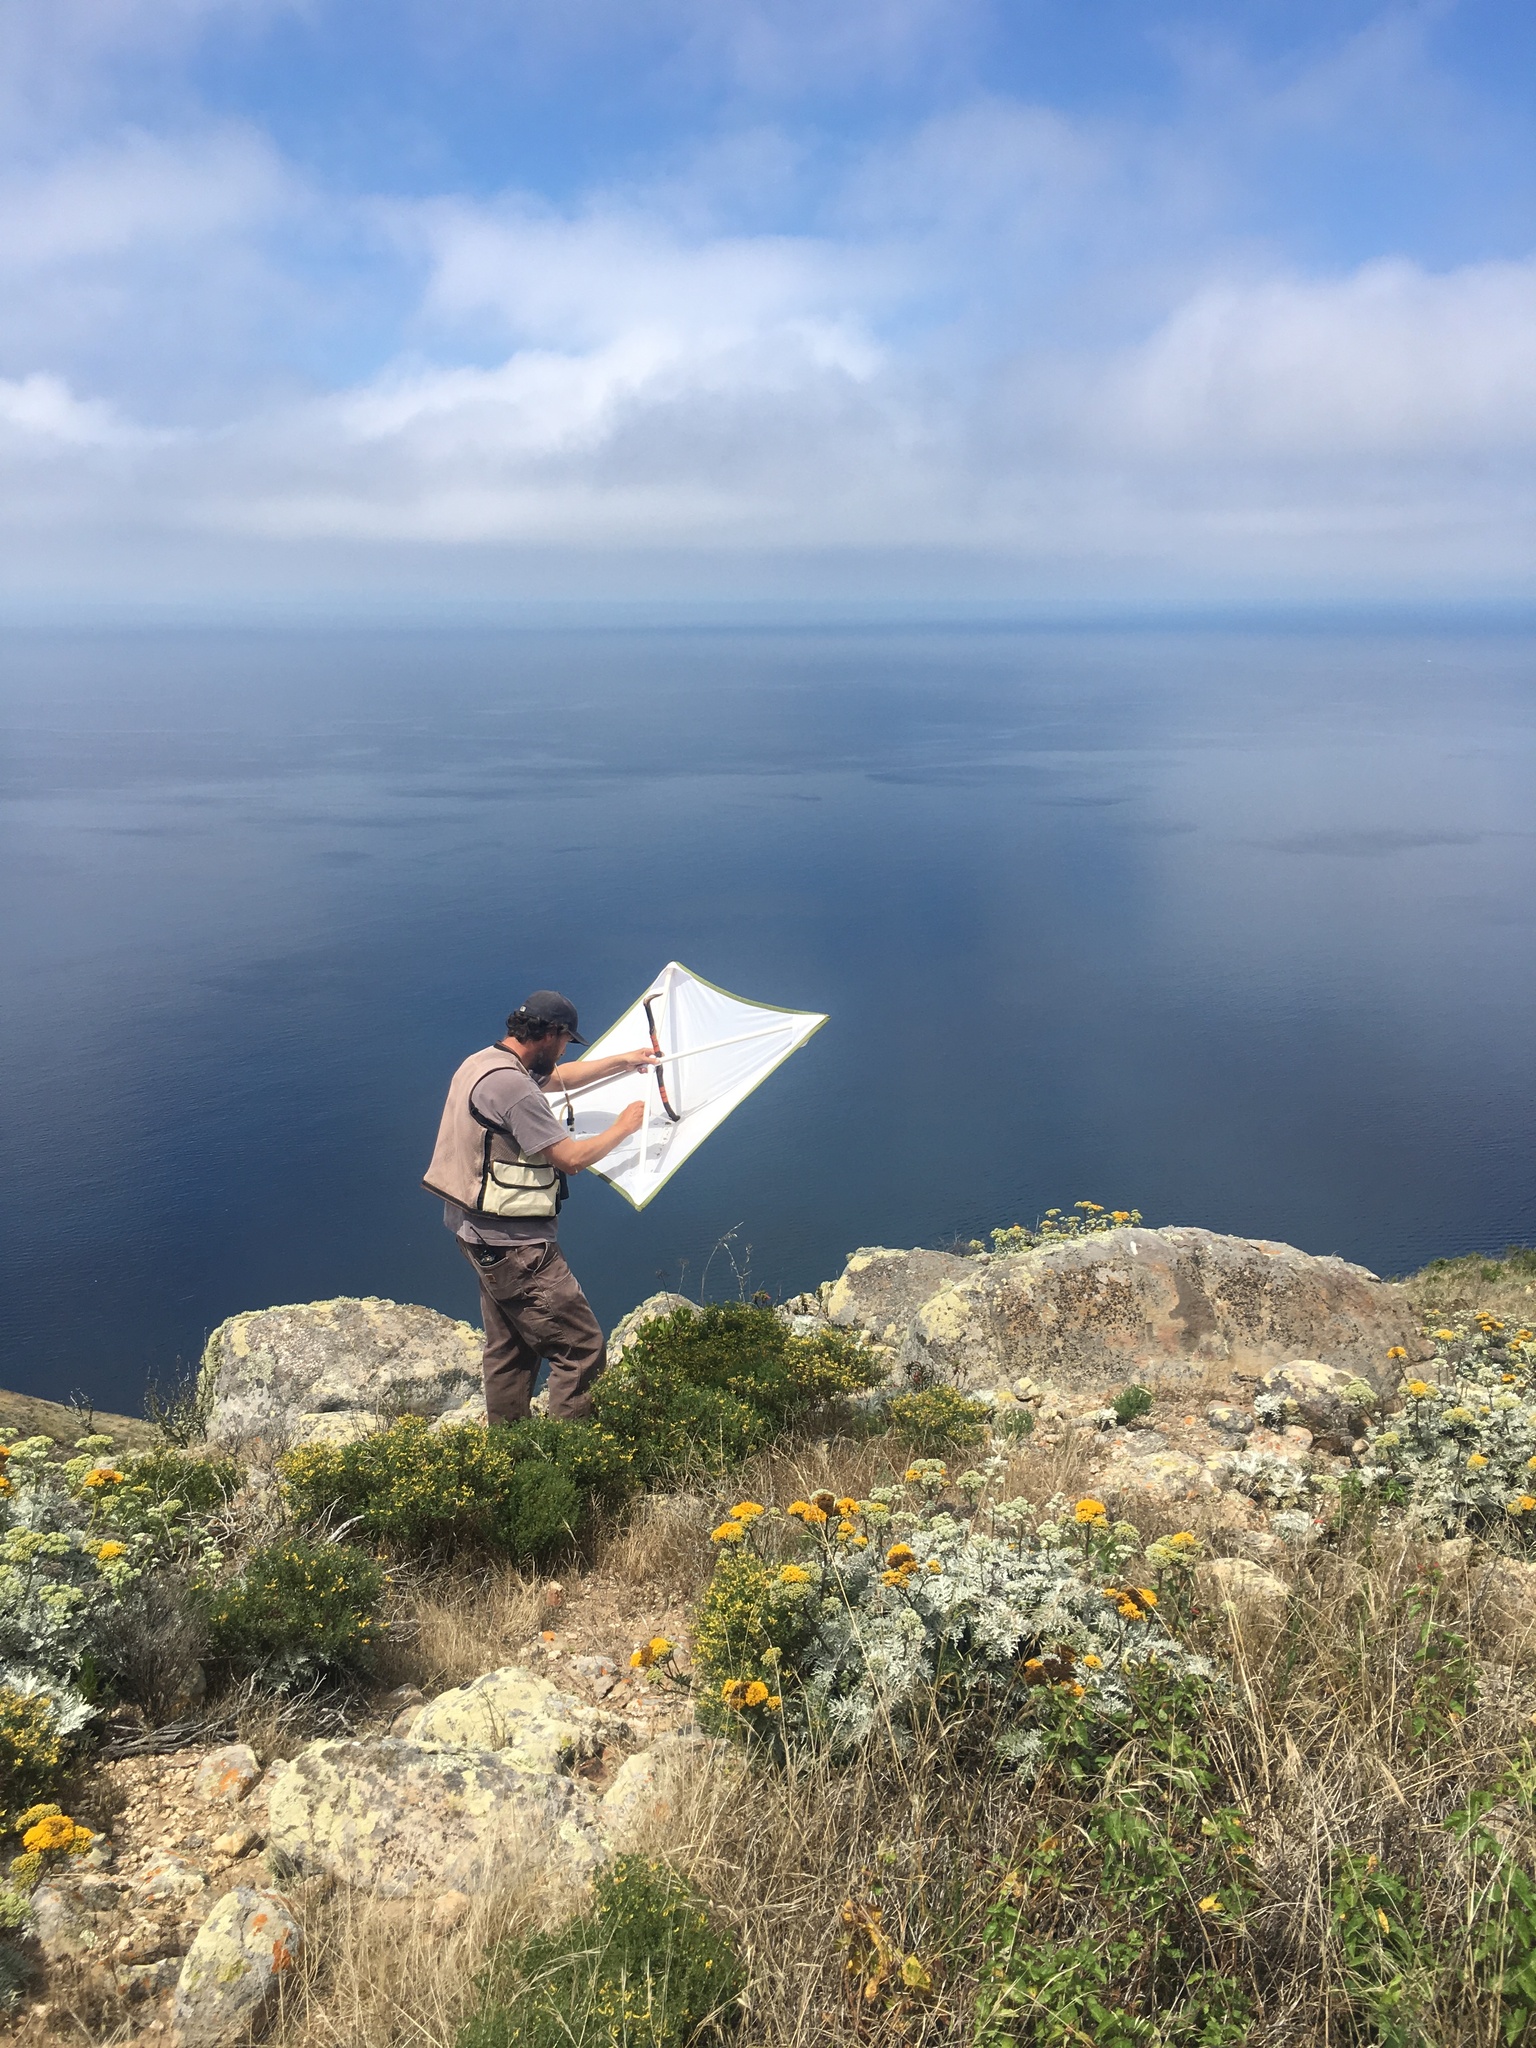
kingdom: Plantae
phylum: Tracheophyta
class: Magnoliopsida
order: Asterales
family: Asteraceae
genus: Constancea
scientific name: Constancea nevinii
